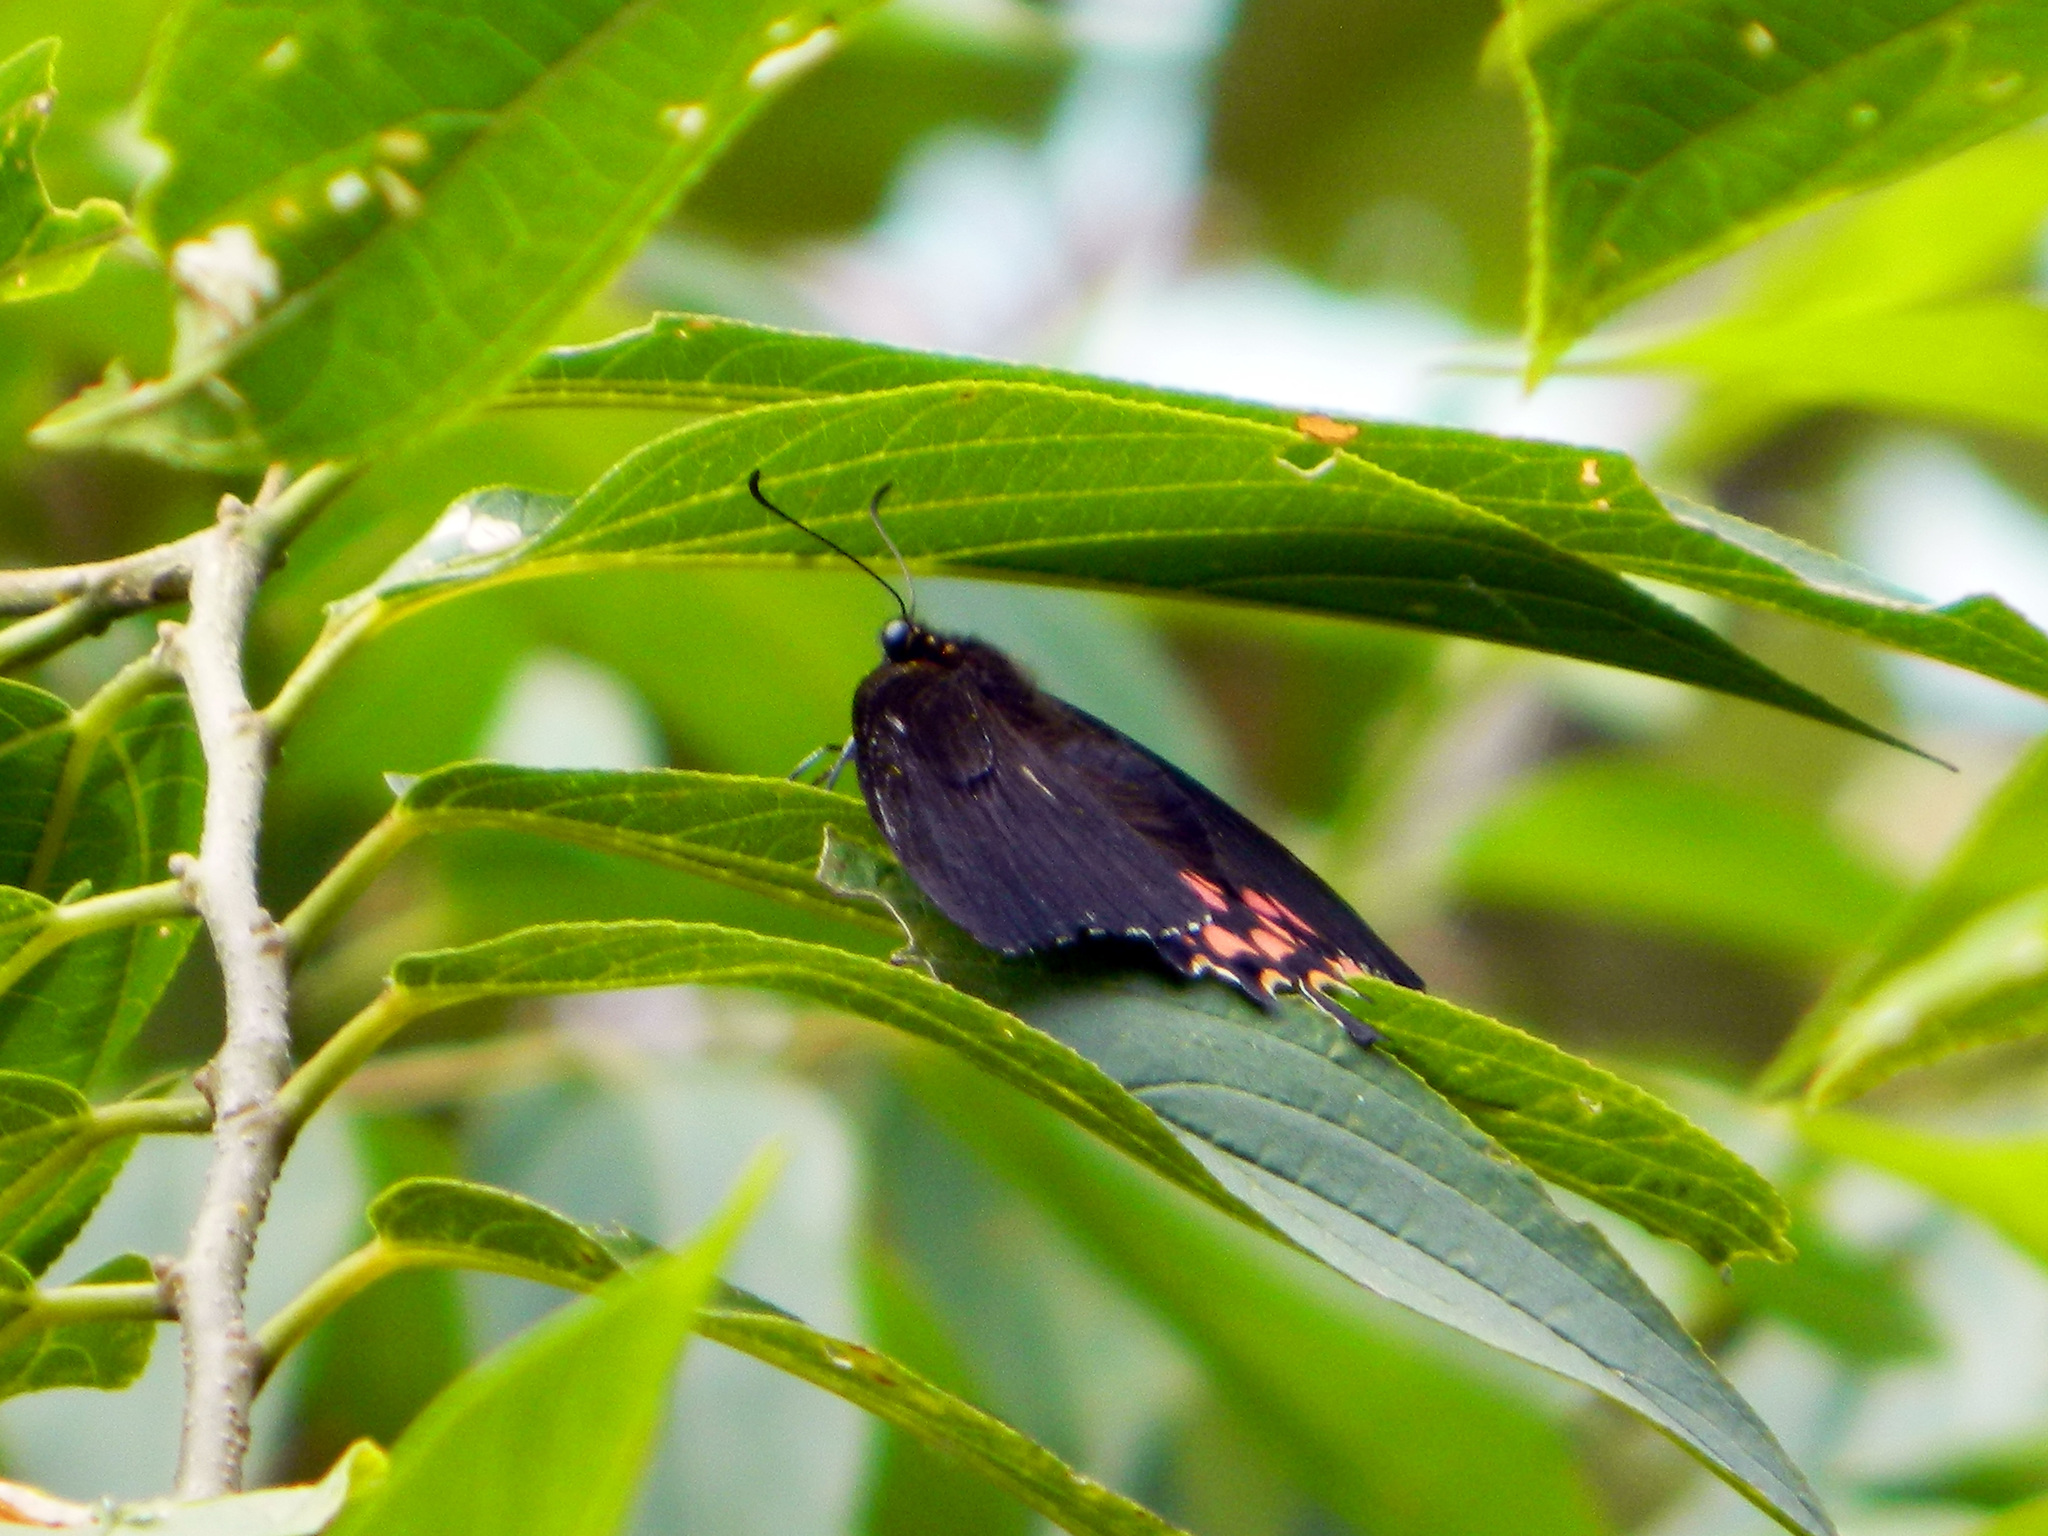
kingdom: Animalia
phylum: Arthropoda
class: Insecta
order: Lepidoptera
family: Papilionidae
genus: Heraclides
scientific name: Heraclides rogeri
